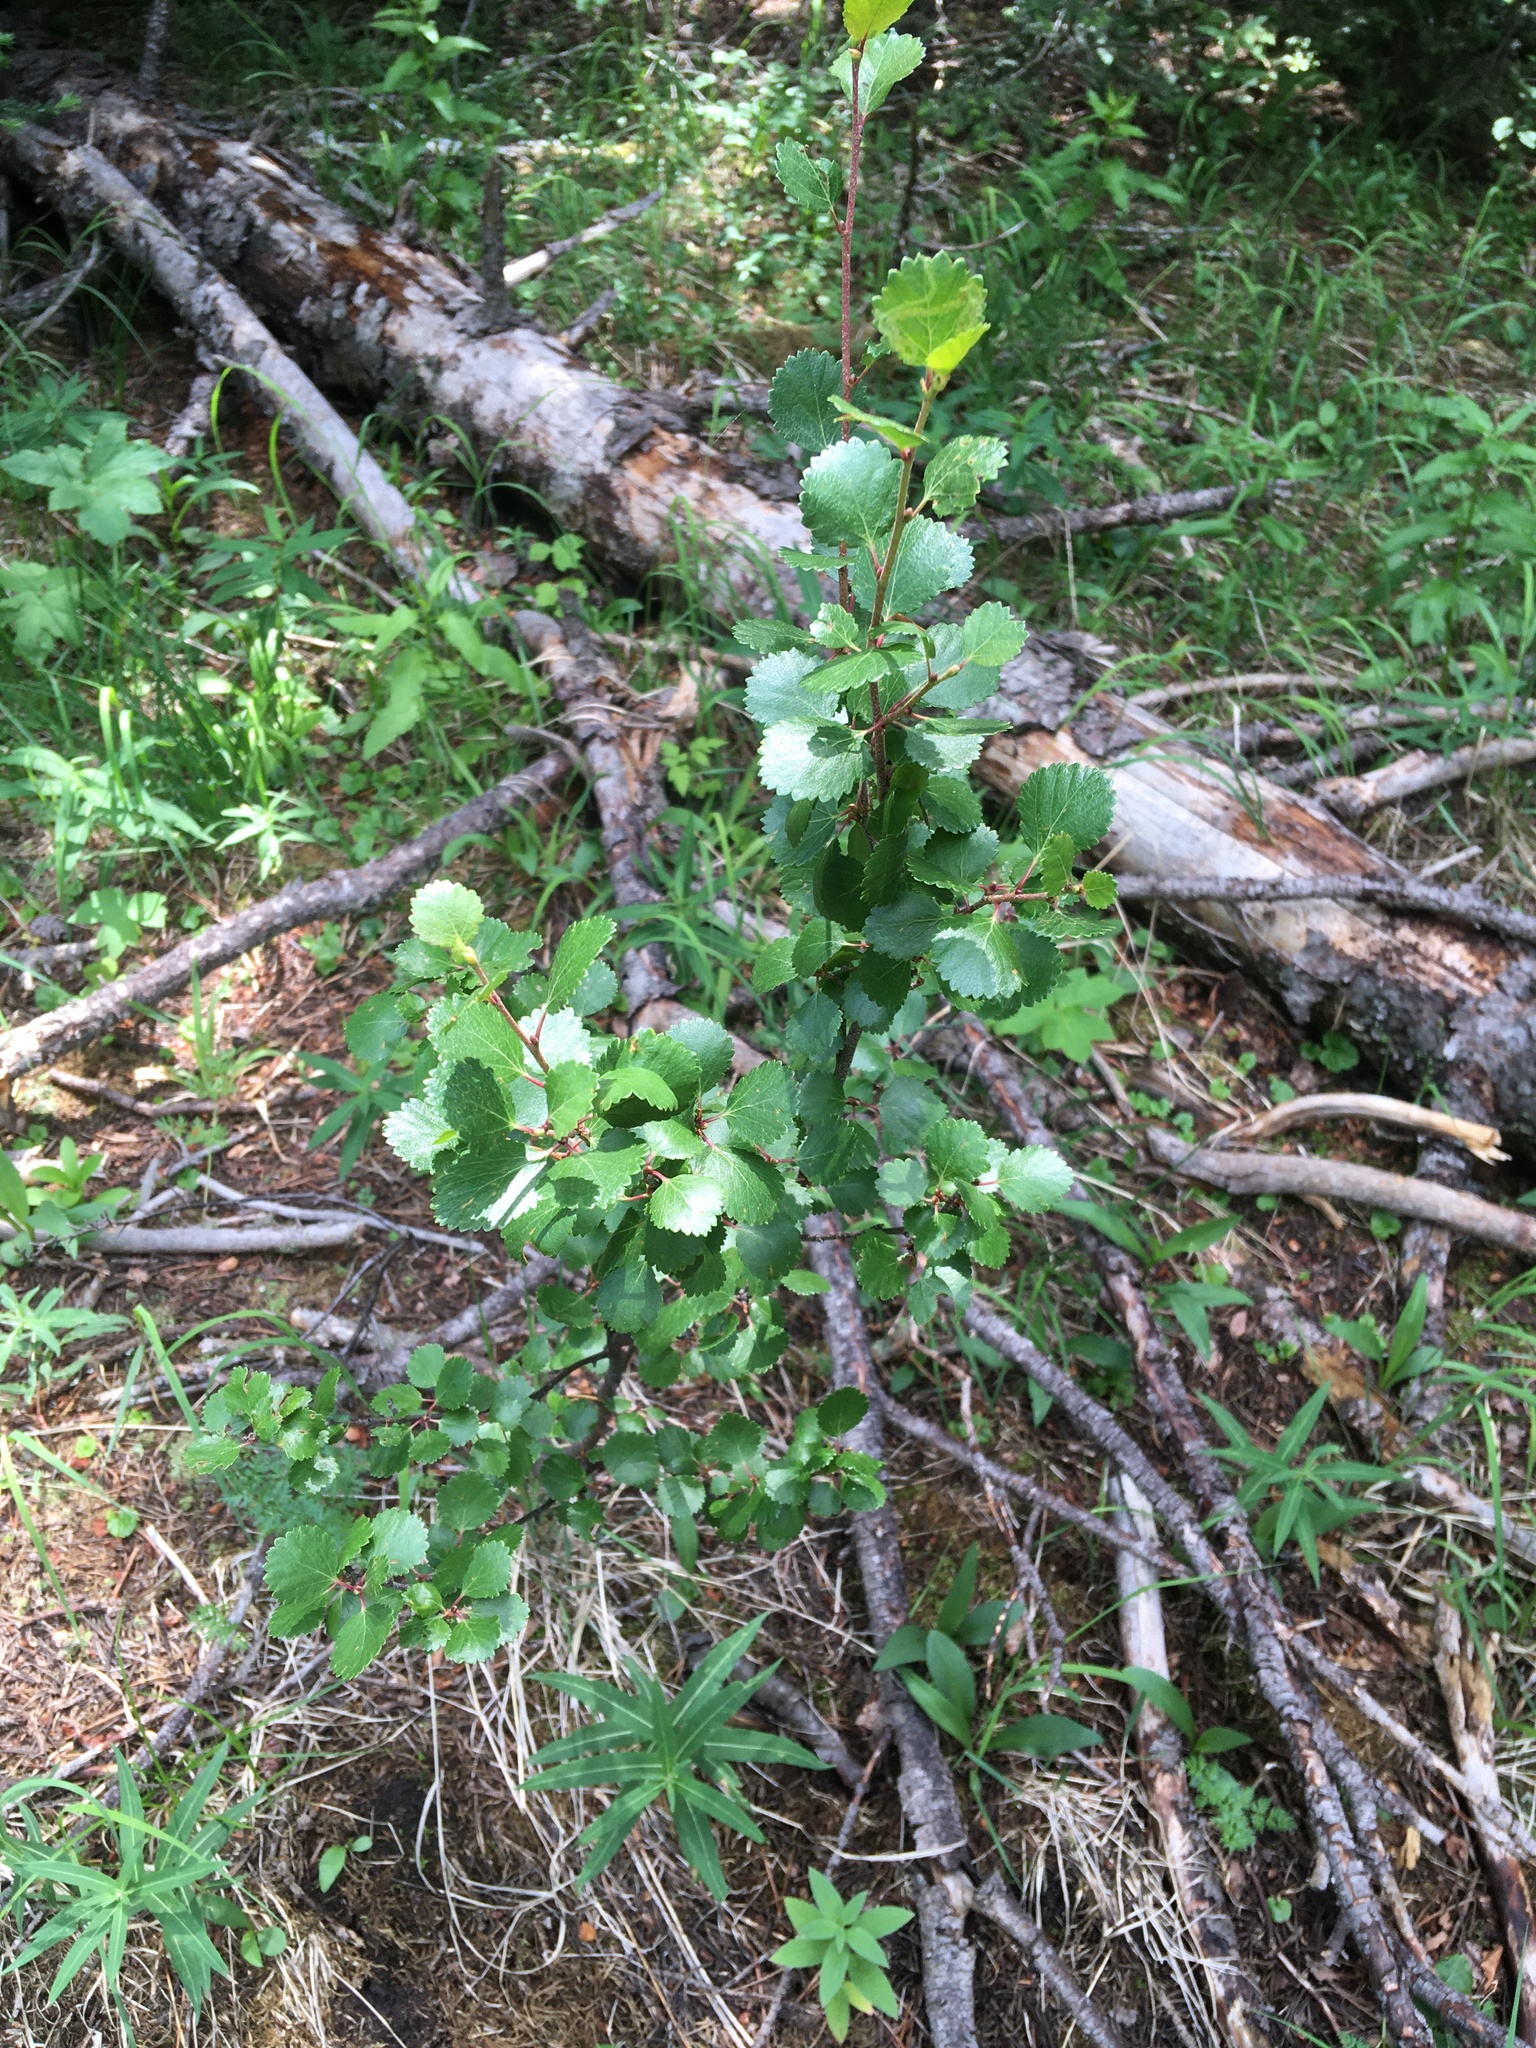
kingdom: Plantae
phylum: Tracheophyta
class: Magnoliopsida
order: Fagales
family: Betulaceae
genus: Betula
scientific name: Betula glandulosa
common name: Dwarf birch
